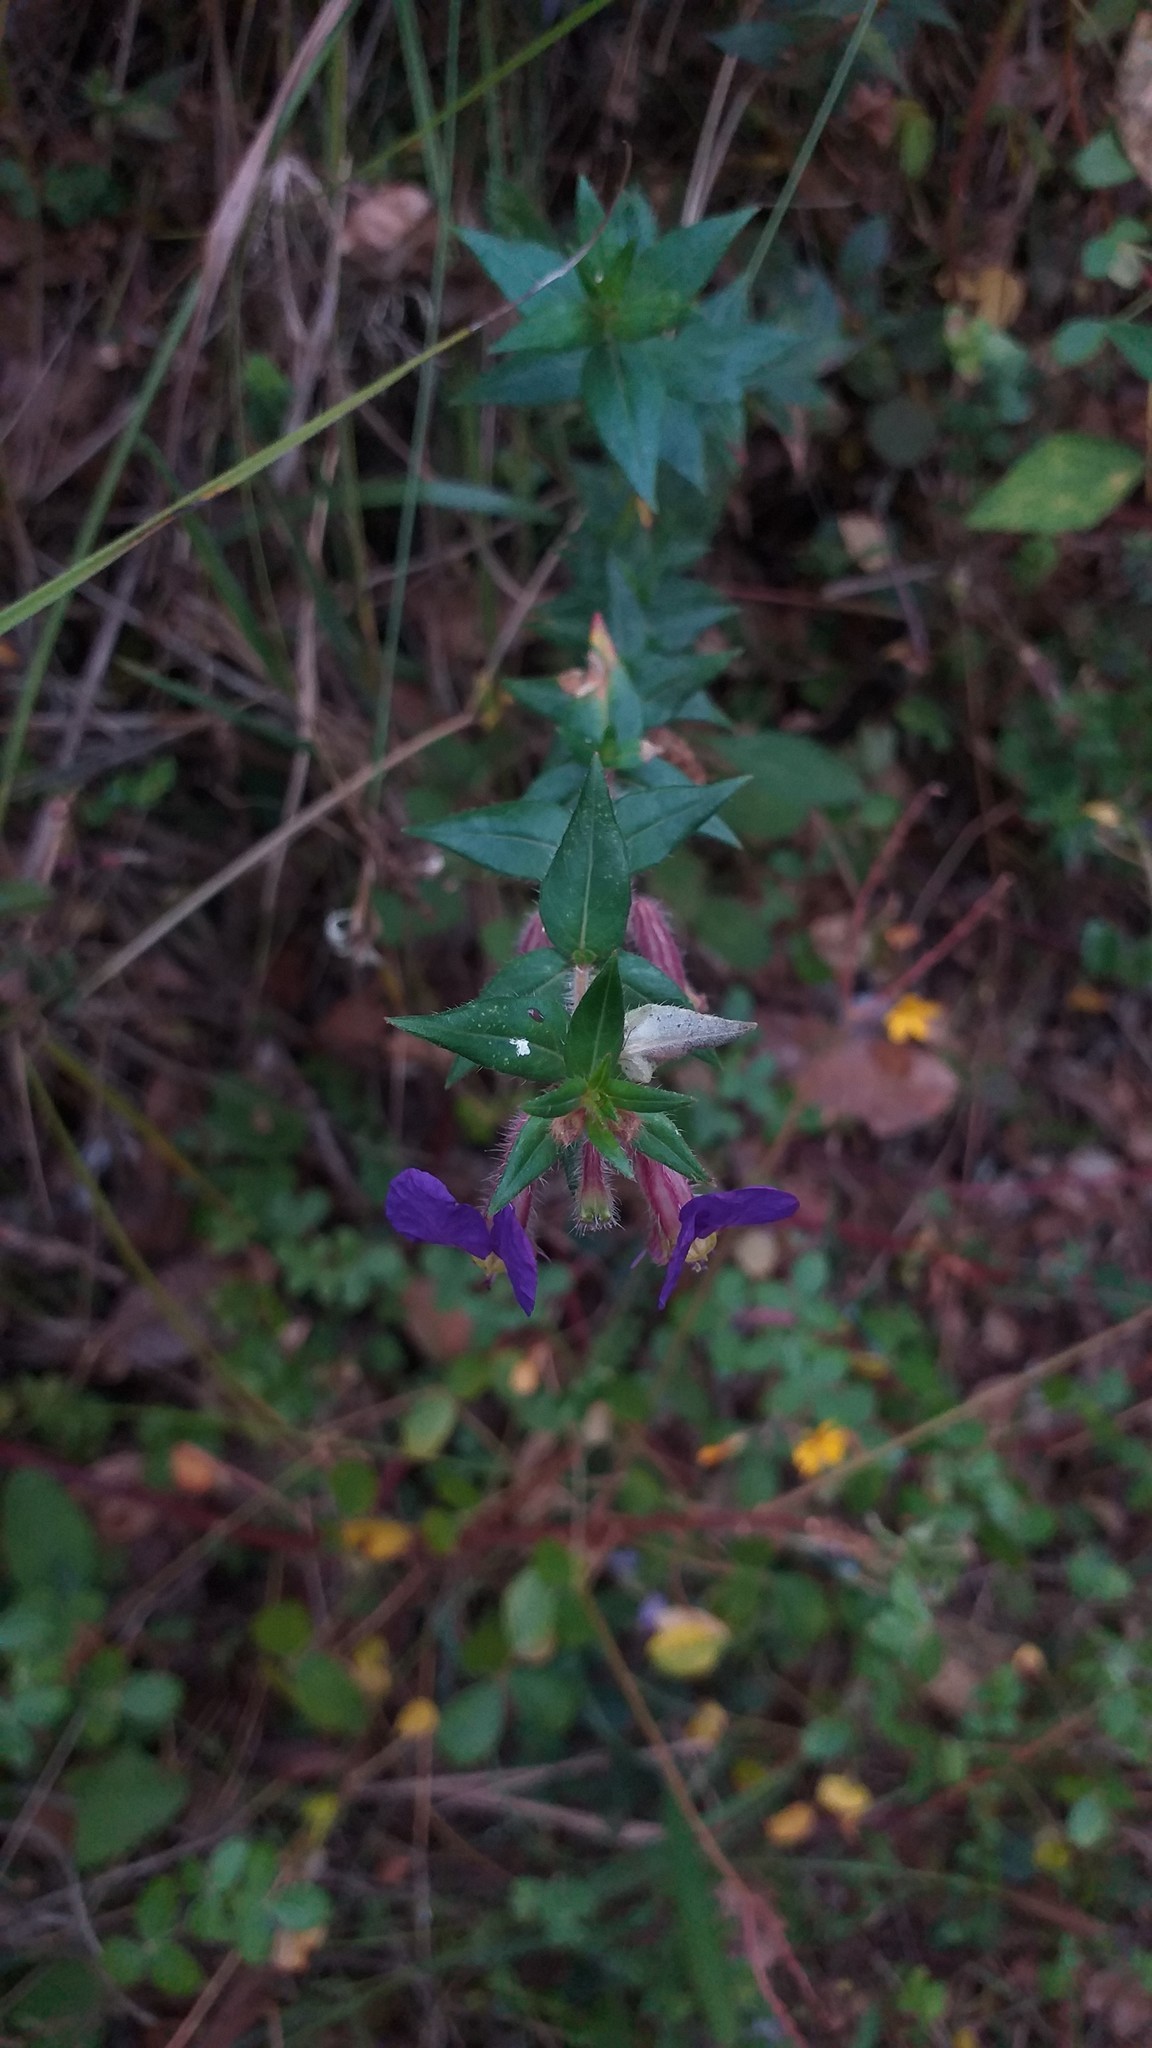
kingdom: Plantae
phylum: Tracheophyta
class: Magnoliopsida
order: Myrtales
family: Lythraceae
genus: Cuphea
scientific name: Cuphea dipetala
